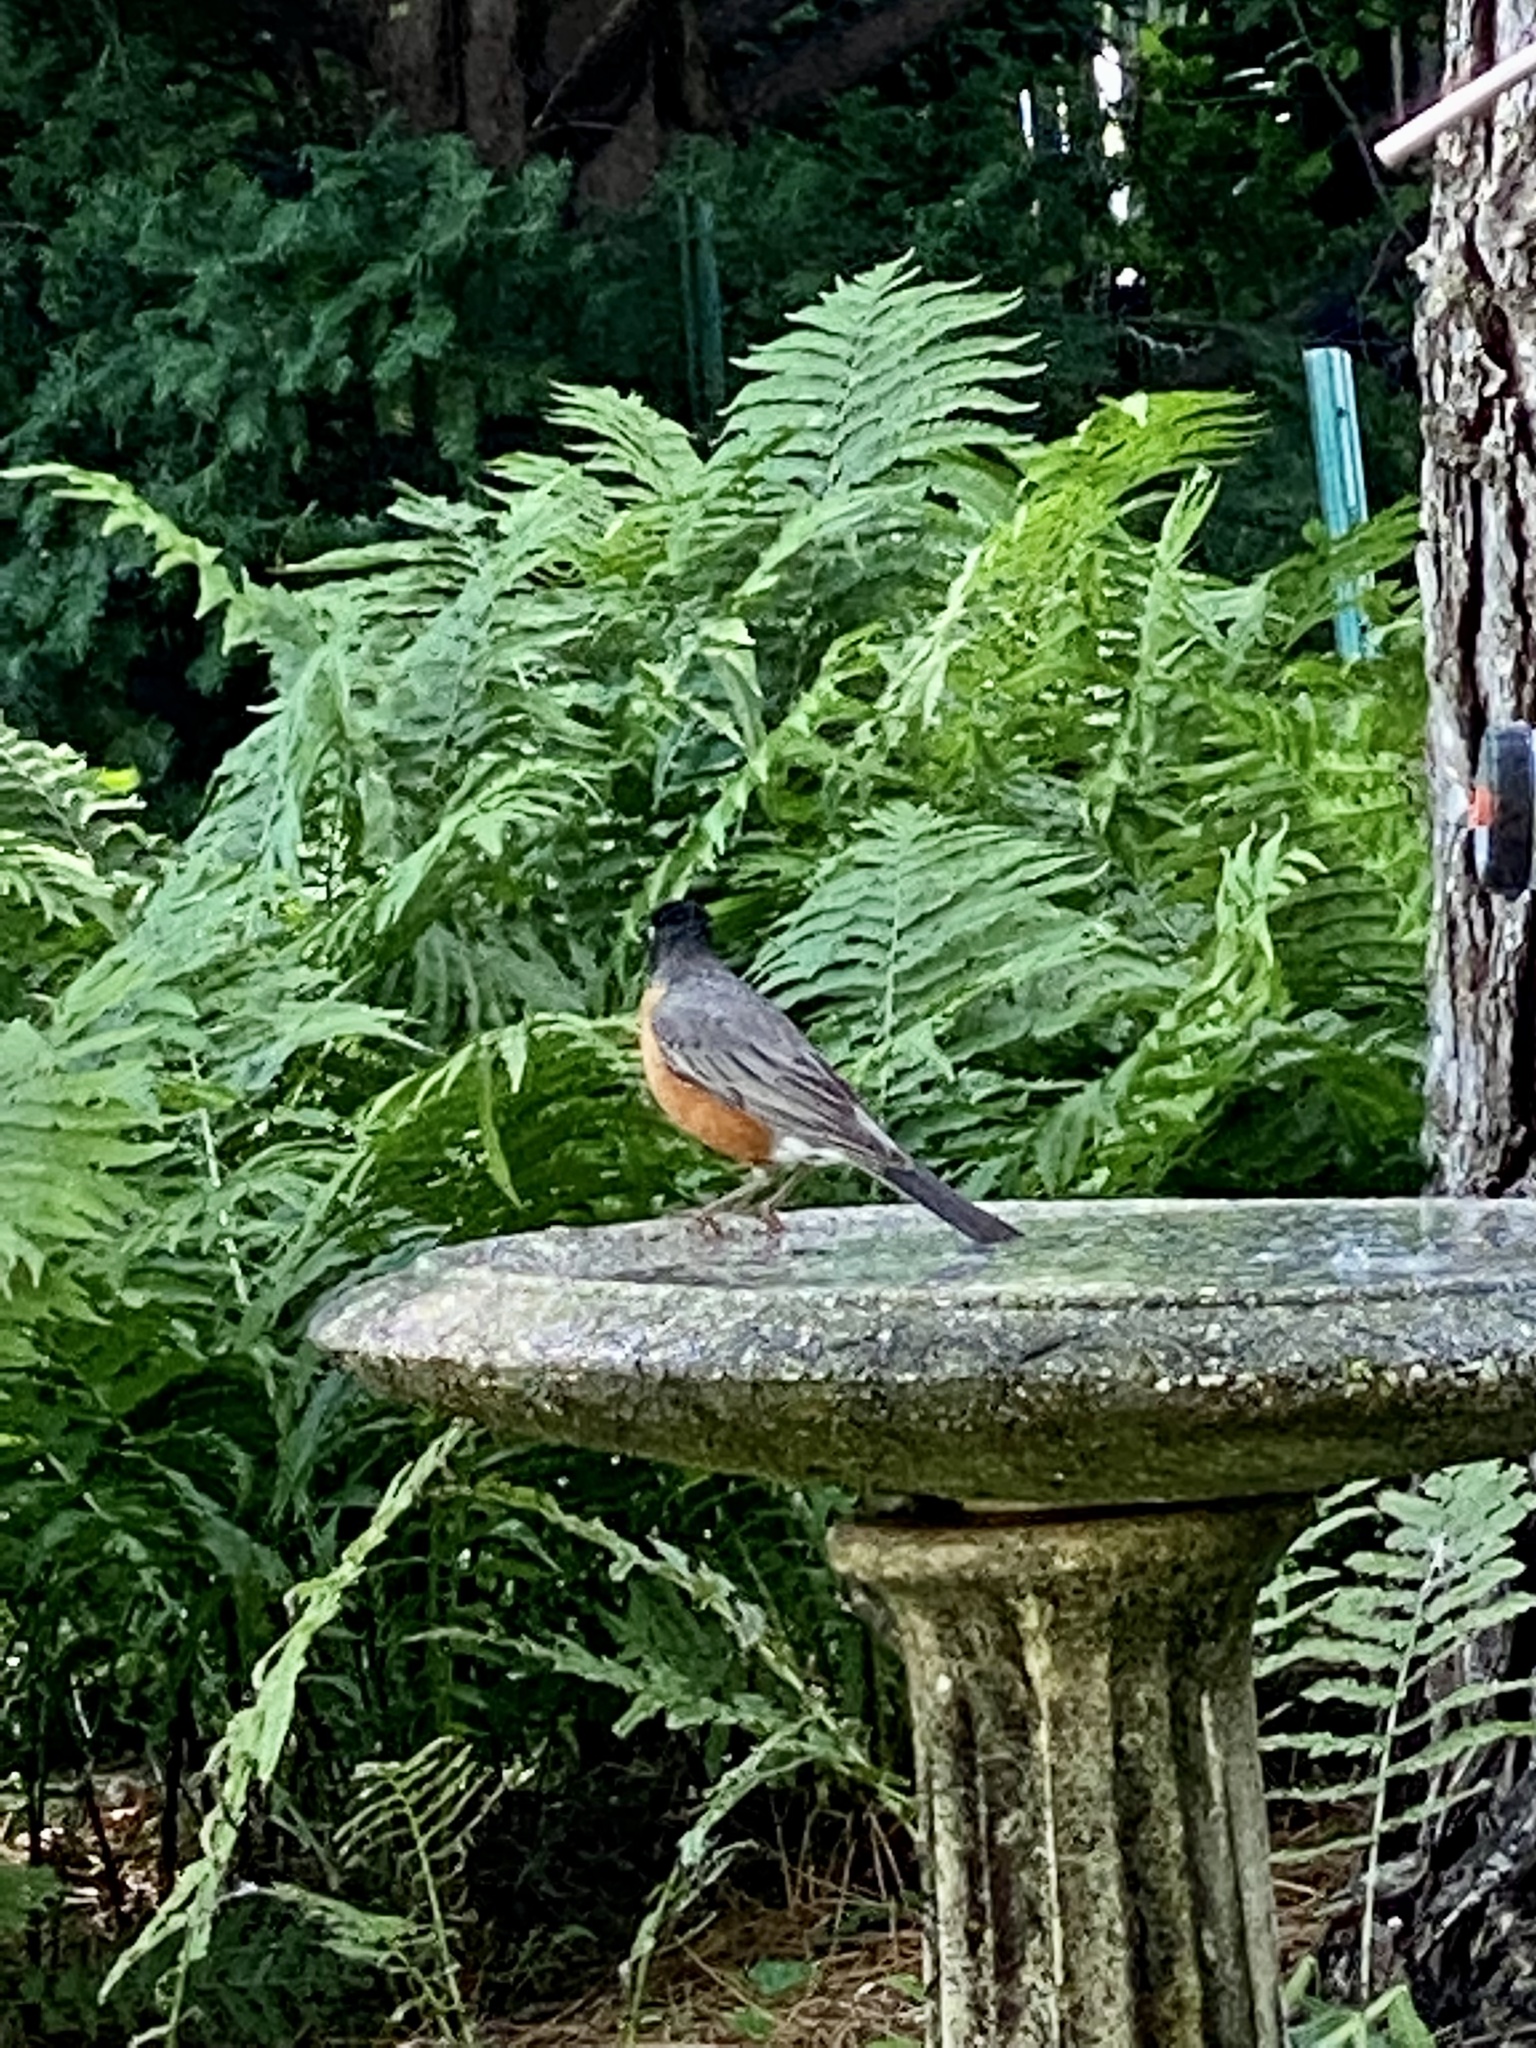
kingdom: Animalia
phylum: Chordata
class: Aves
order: Passeriformes
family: Turdidae
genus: Turdus
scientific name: Turdus migratorius
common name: American robin
